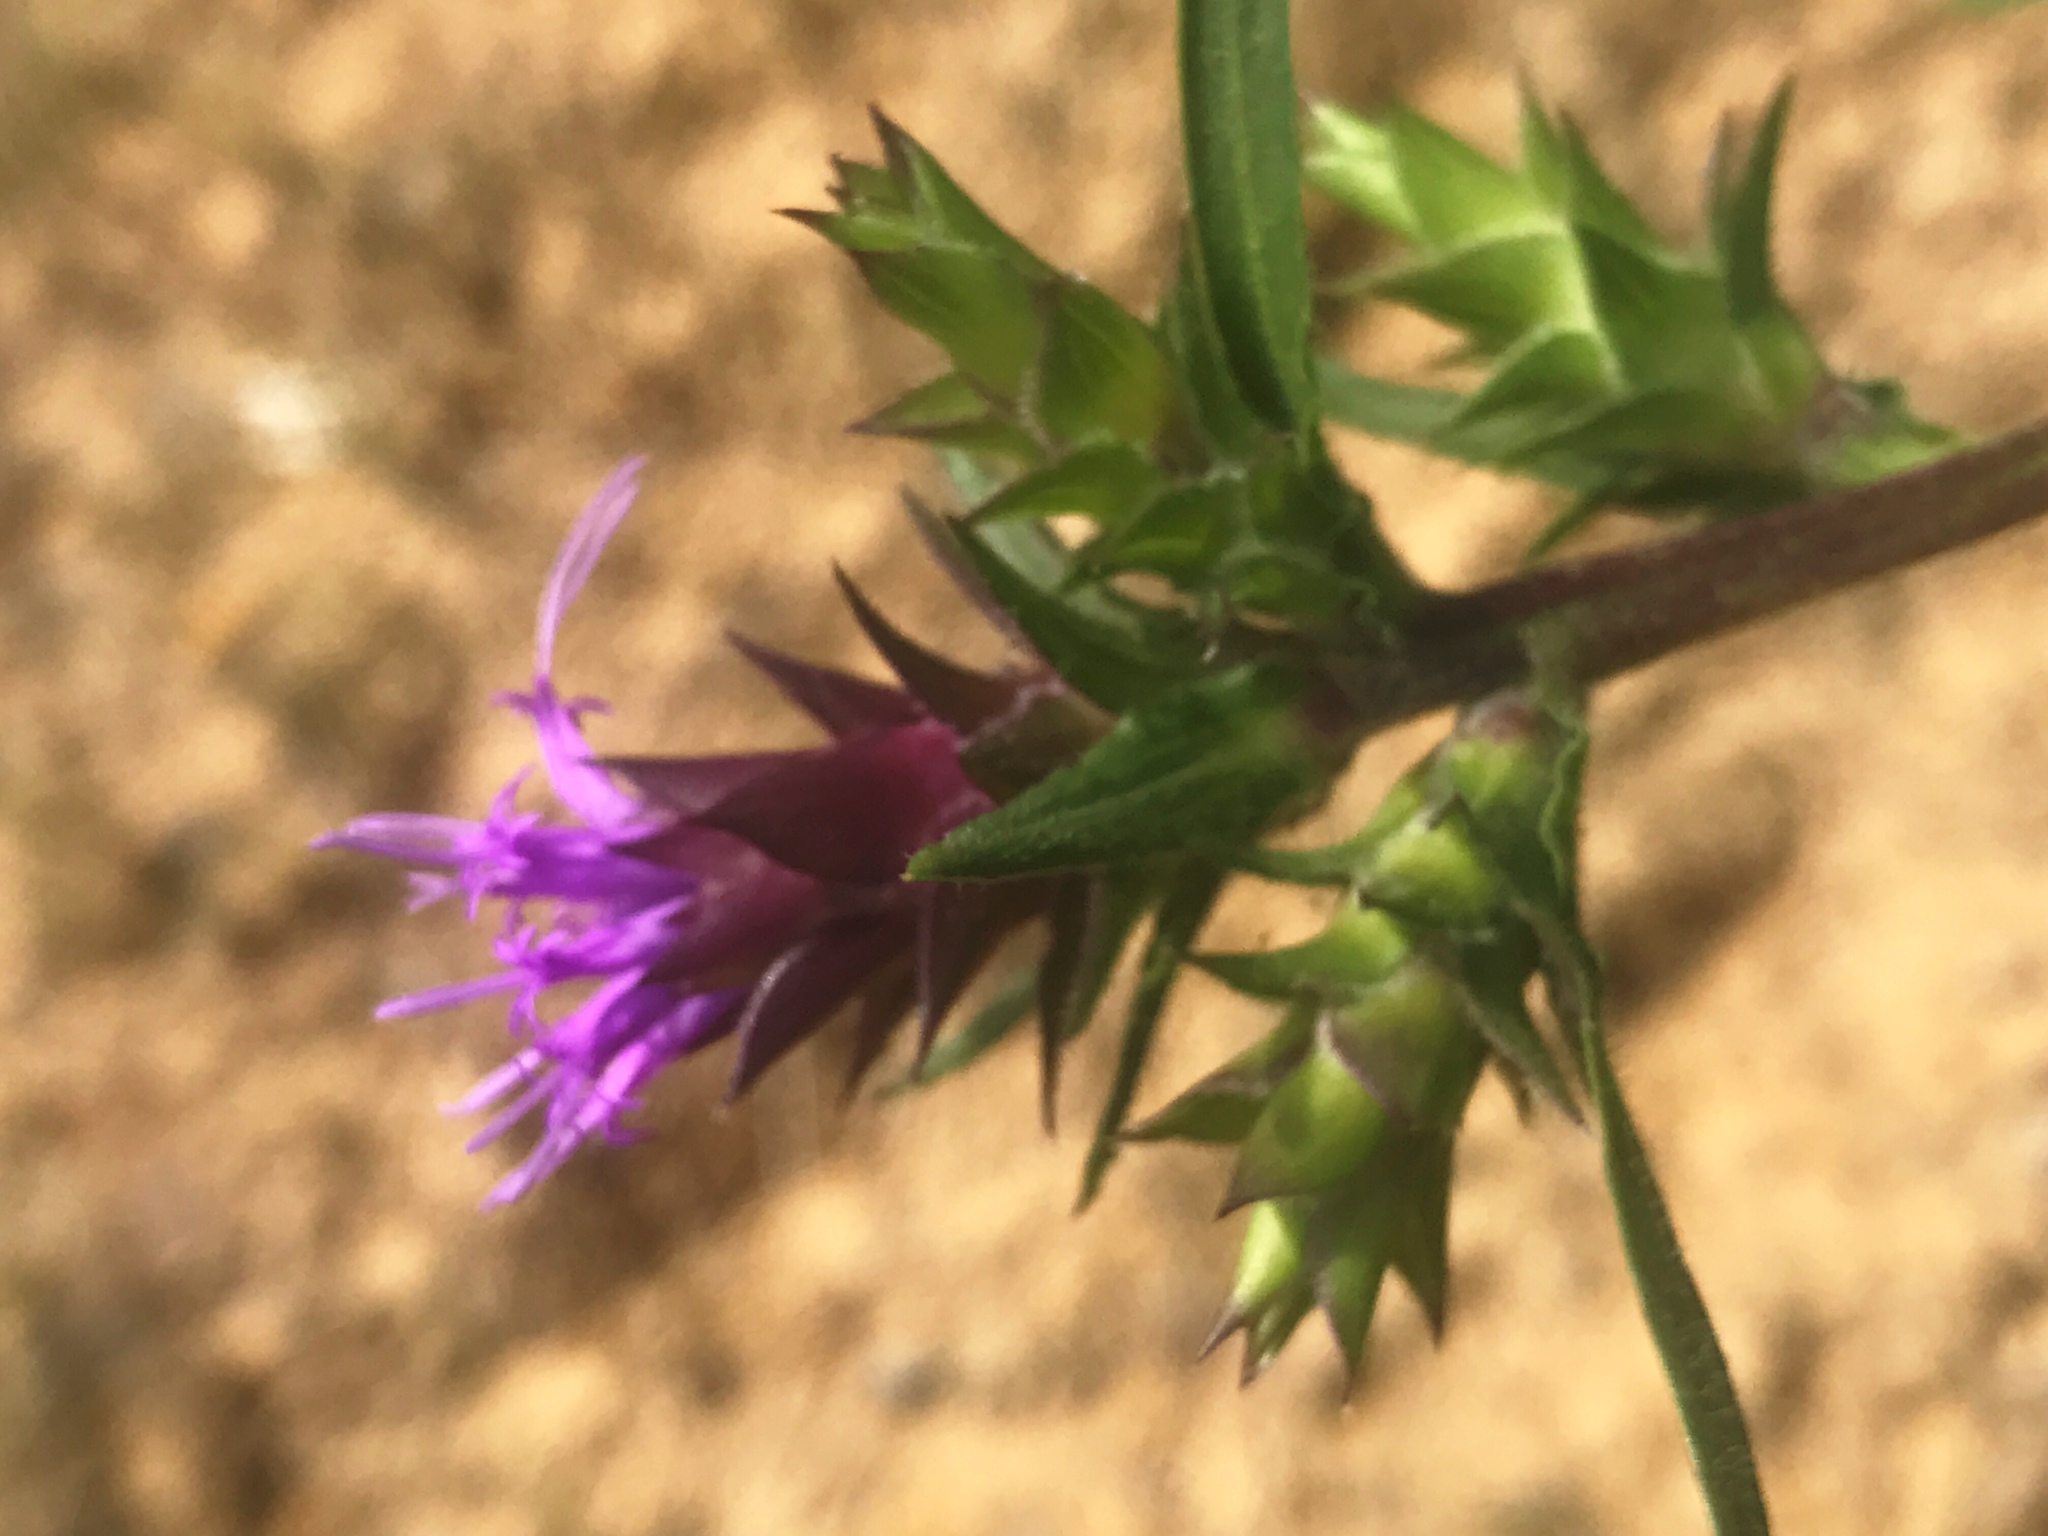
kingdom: Plantae
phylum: Tracheophyta
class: Magnoliopsida
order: Asterales
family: Asteraceae
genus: Liatris
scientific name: Liatris squarrosa
